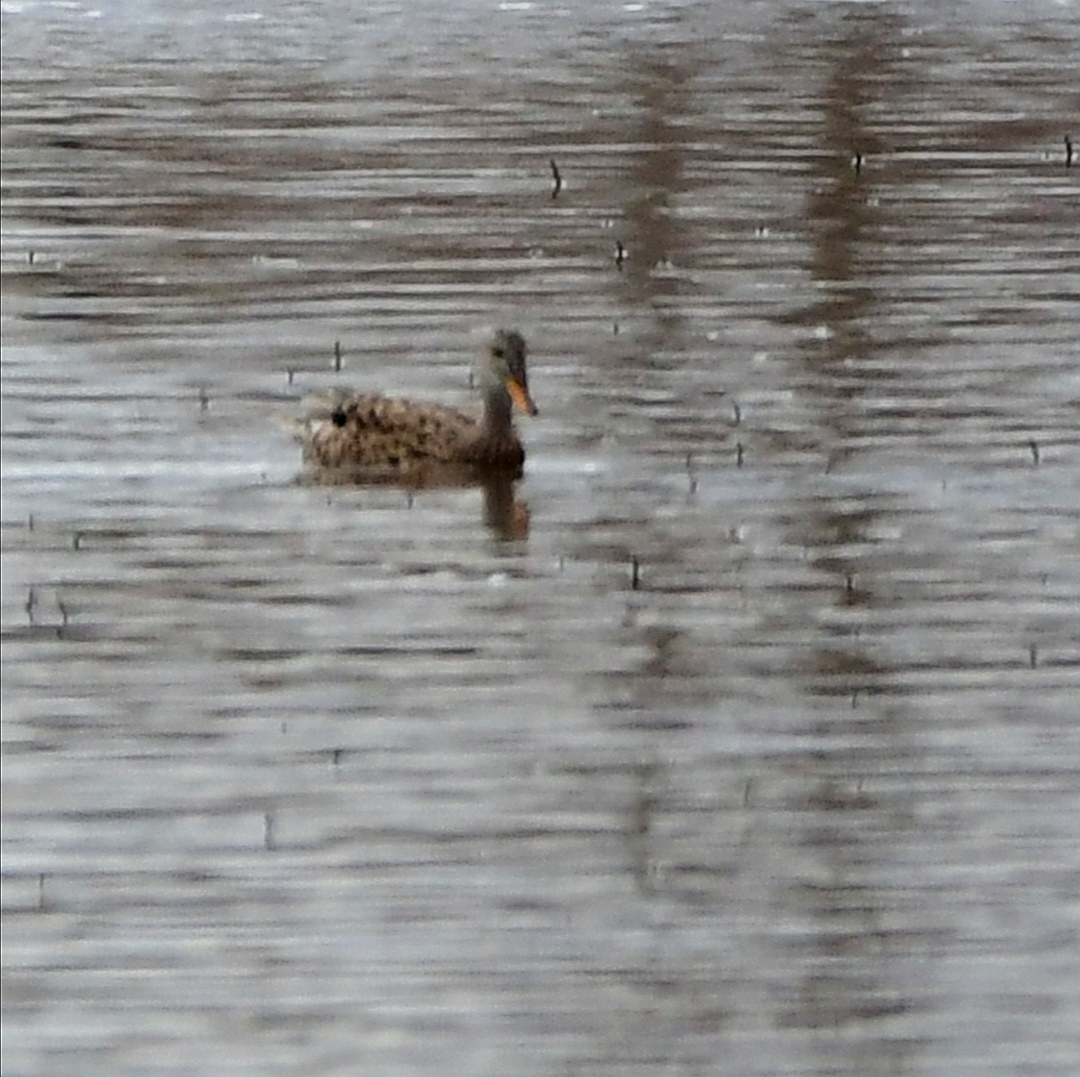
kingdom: Animalia
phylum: Chordata
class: Aves
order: Anseriformes
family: Anatidae
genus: Mareca
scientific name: Mareca strepera
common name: Gadwall
